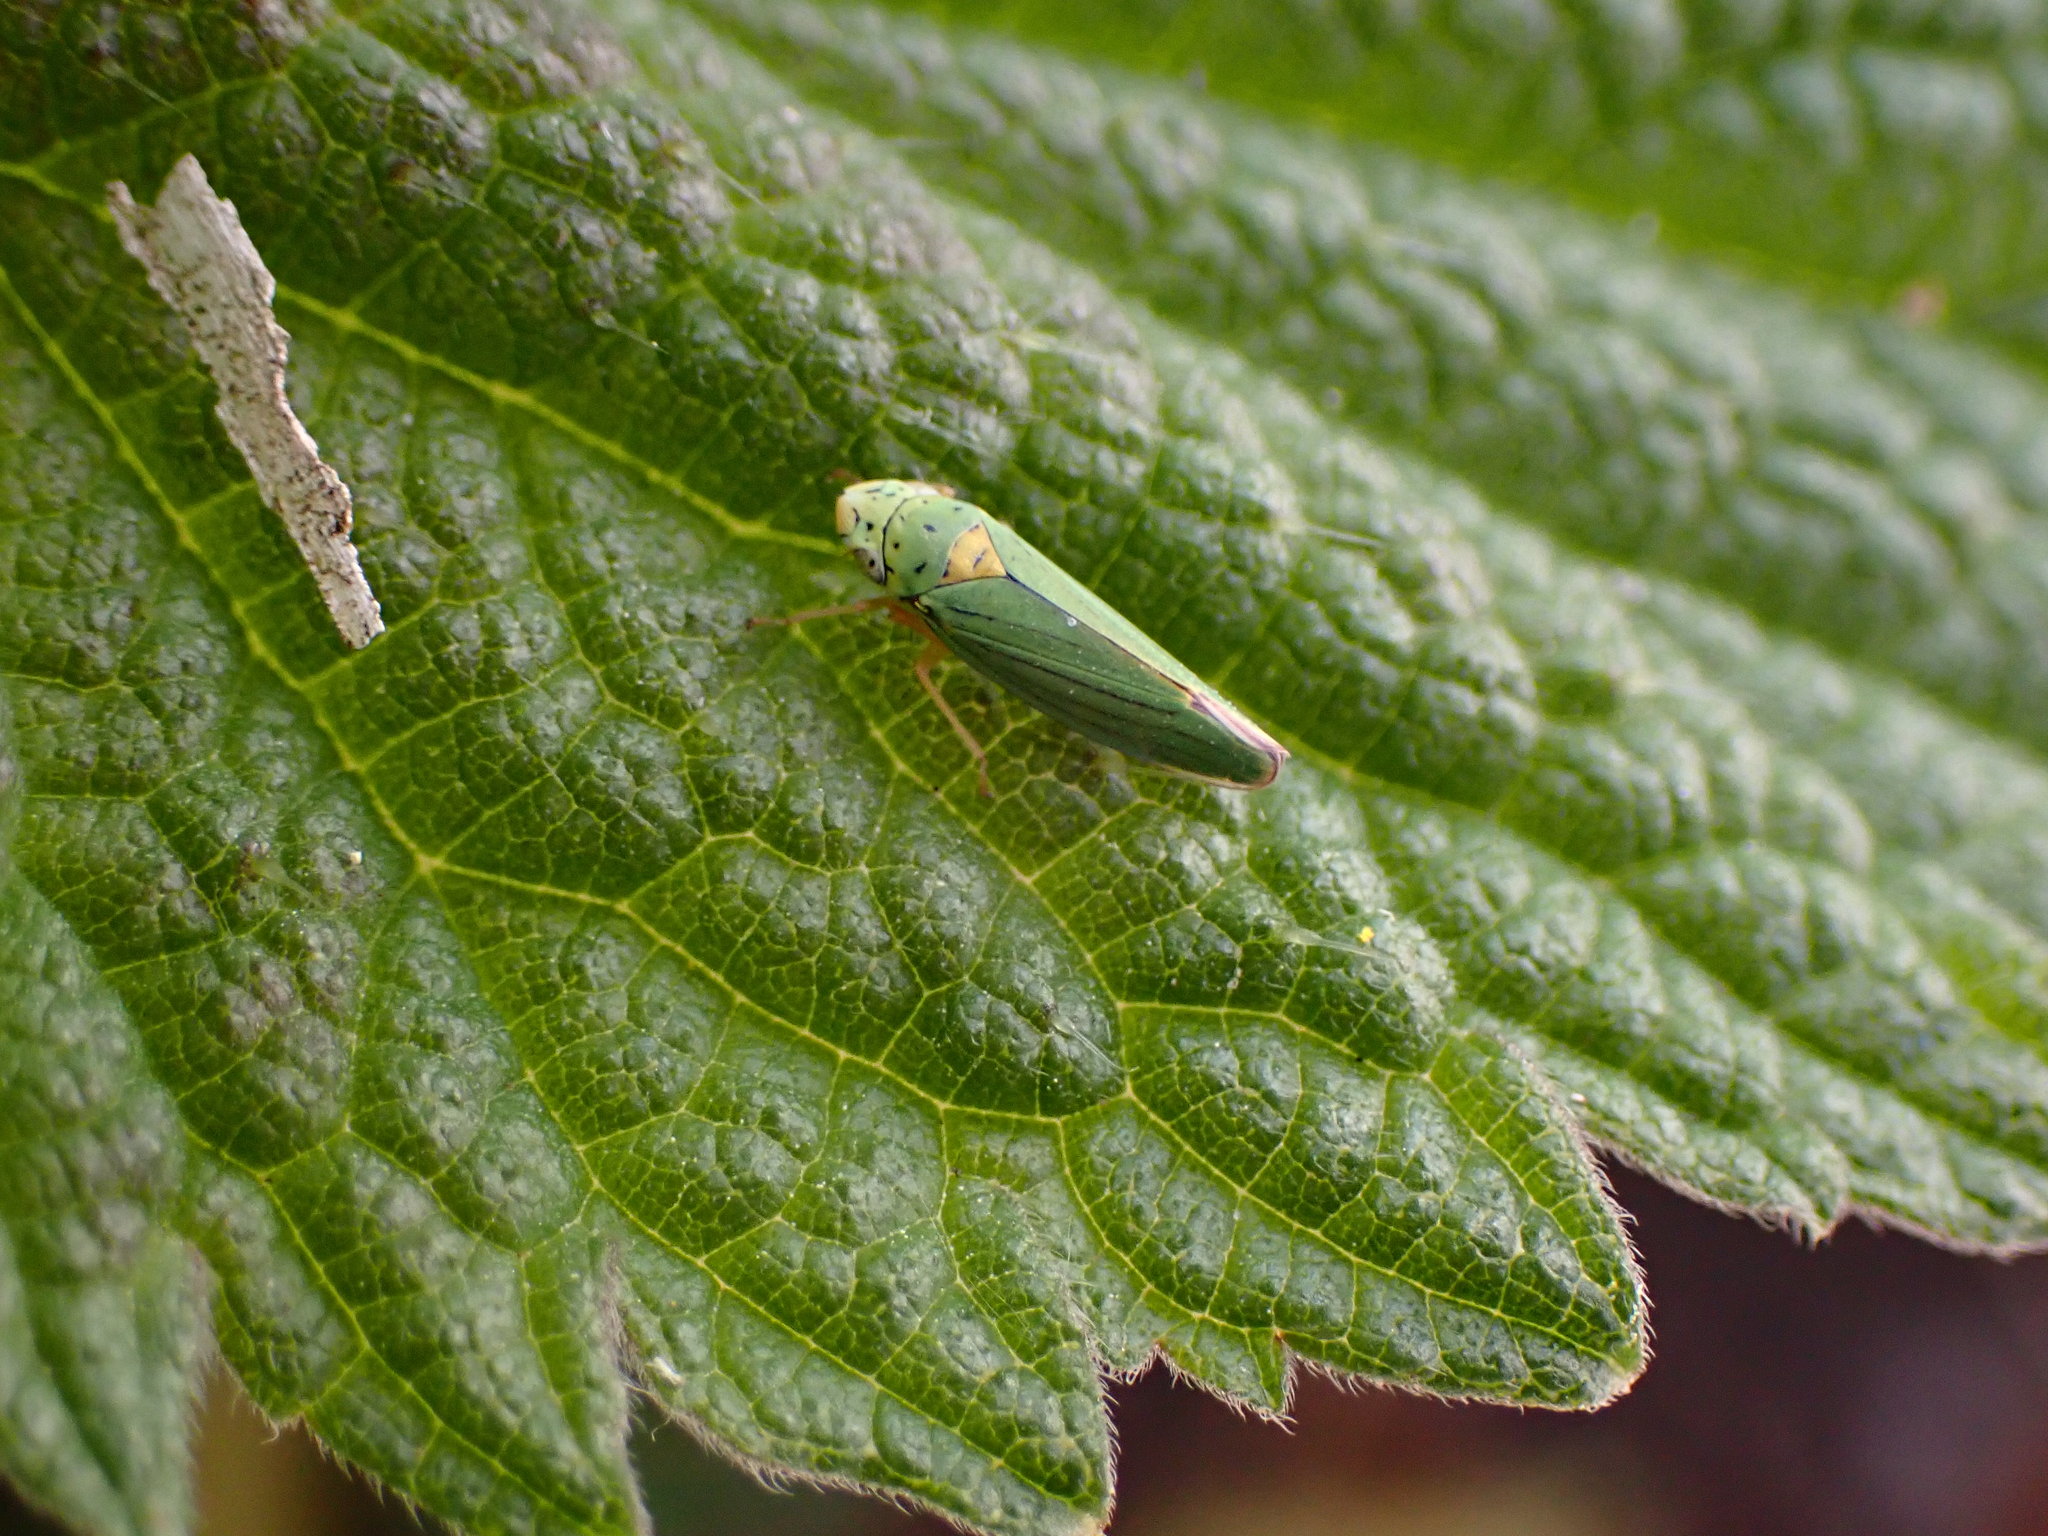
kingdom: Animalia
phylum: Arthropoda
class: Insecta
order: Hemiptera
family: Cicadellidae
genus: Graphocephala
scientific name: Graphocephala atropunctata
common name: Blue-green sharpshooter
